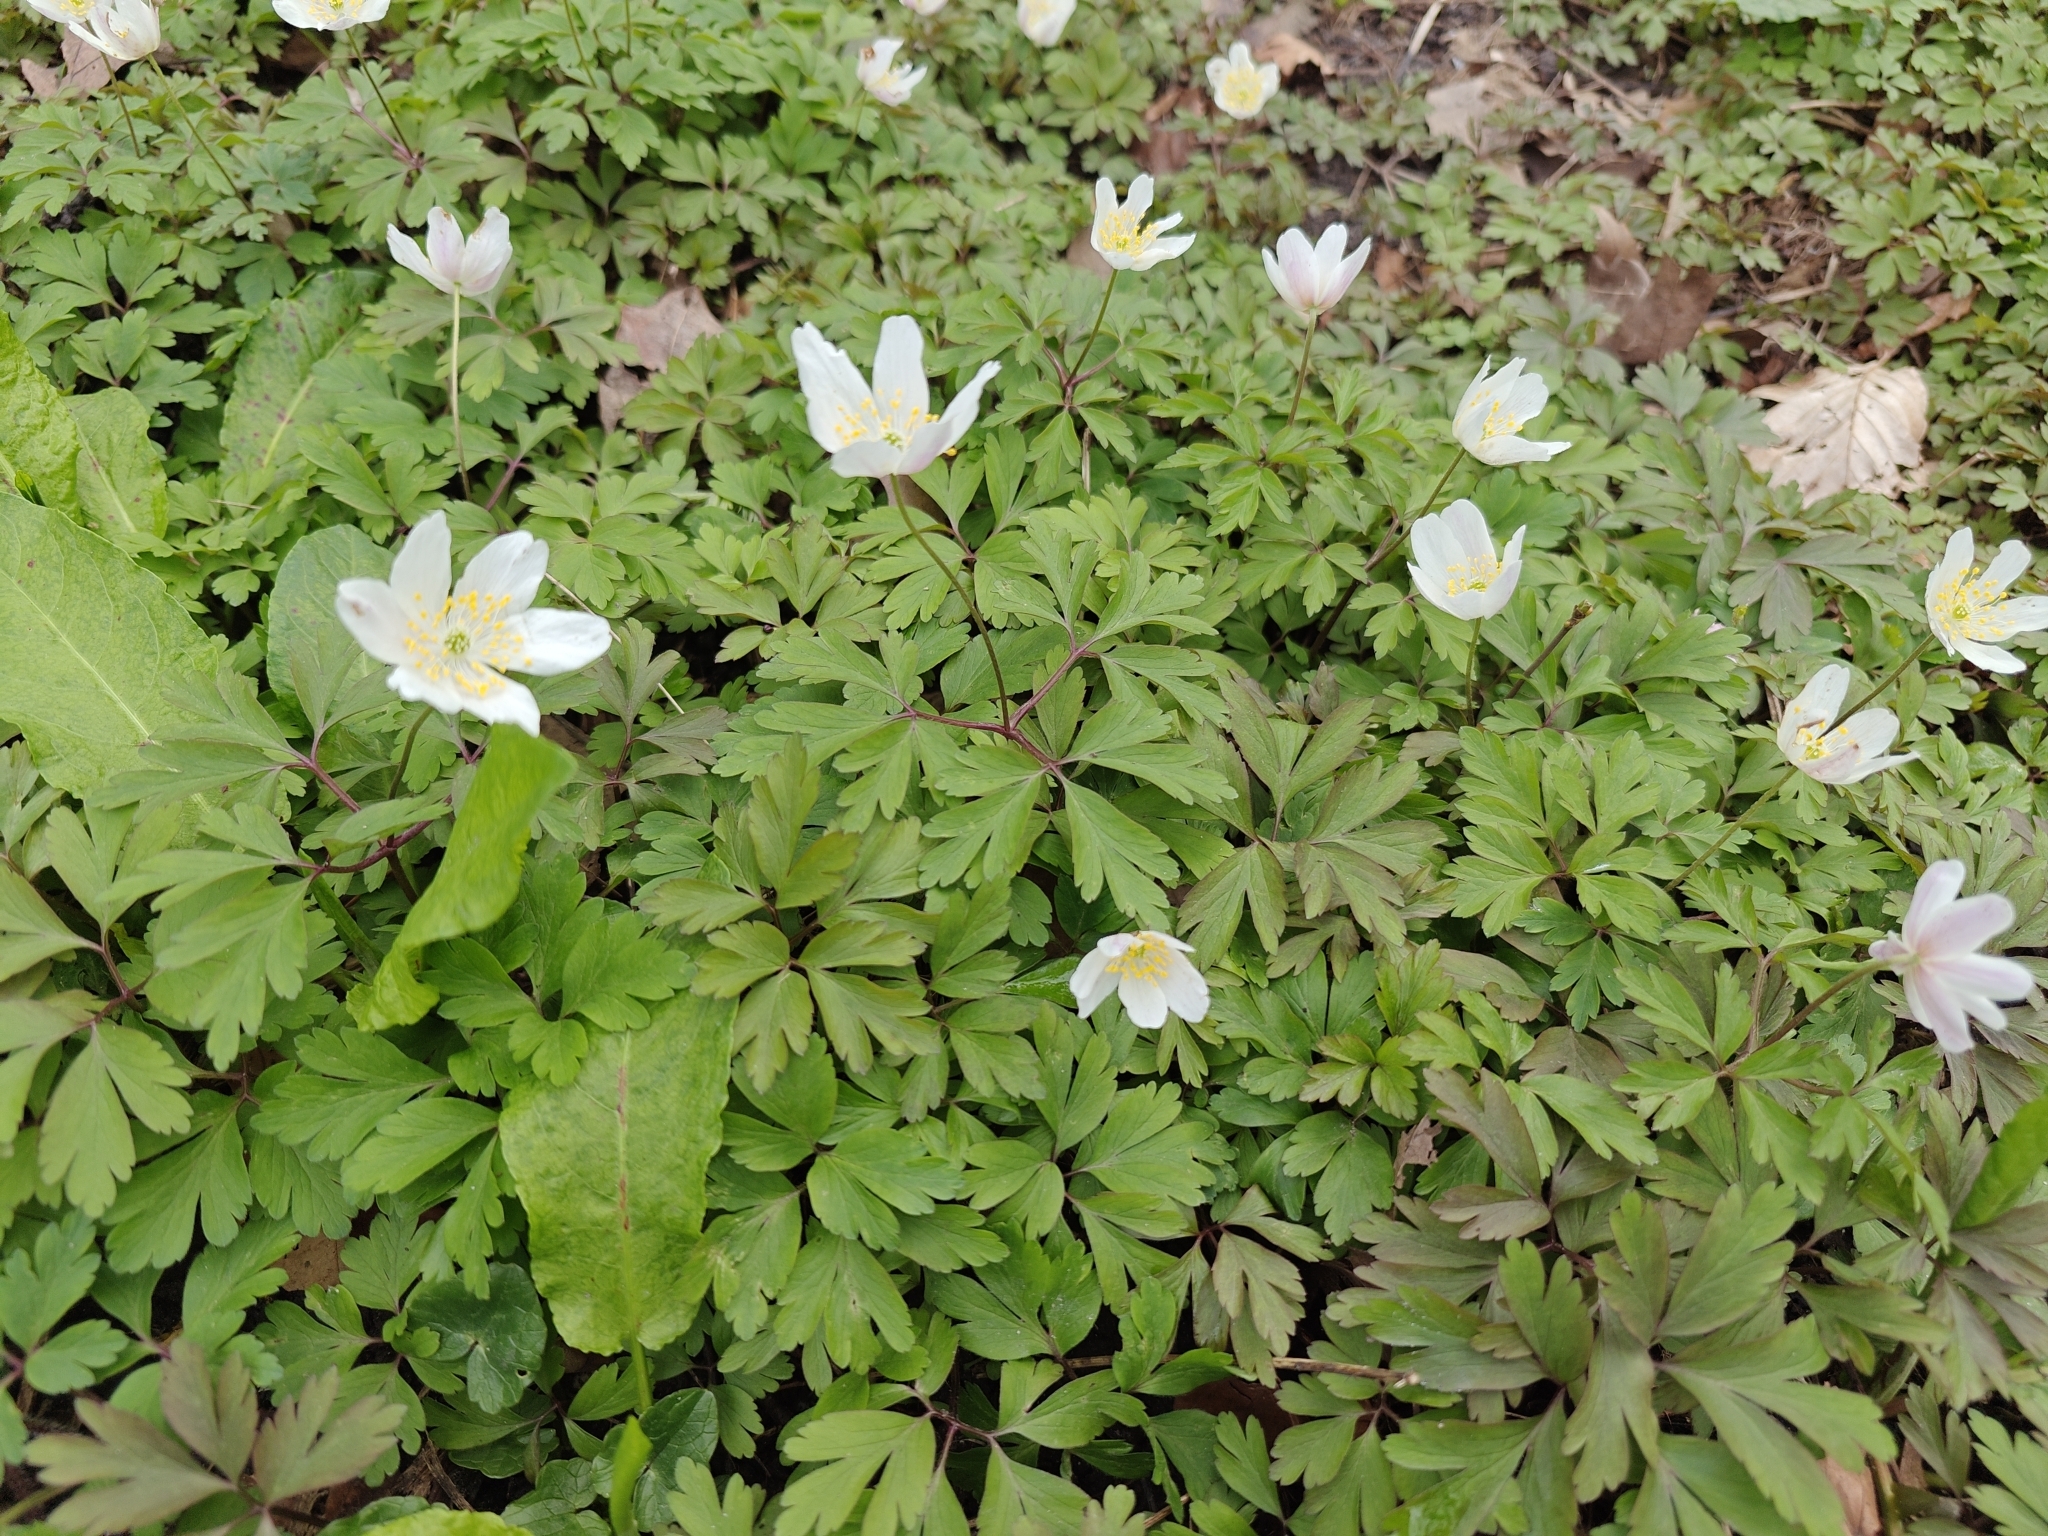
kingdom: Plantae
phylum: Tracheophyta
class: Magnoliopsida
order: Ranunculales
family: Ranunculaceae
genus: Anemone
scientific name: Anemone nemorosa
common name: Wood anemone
